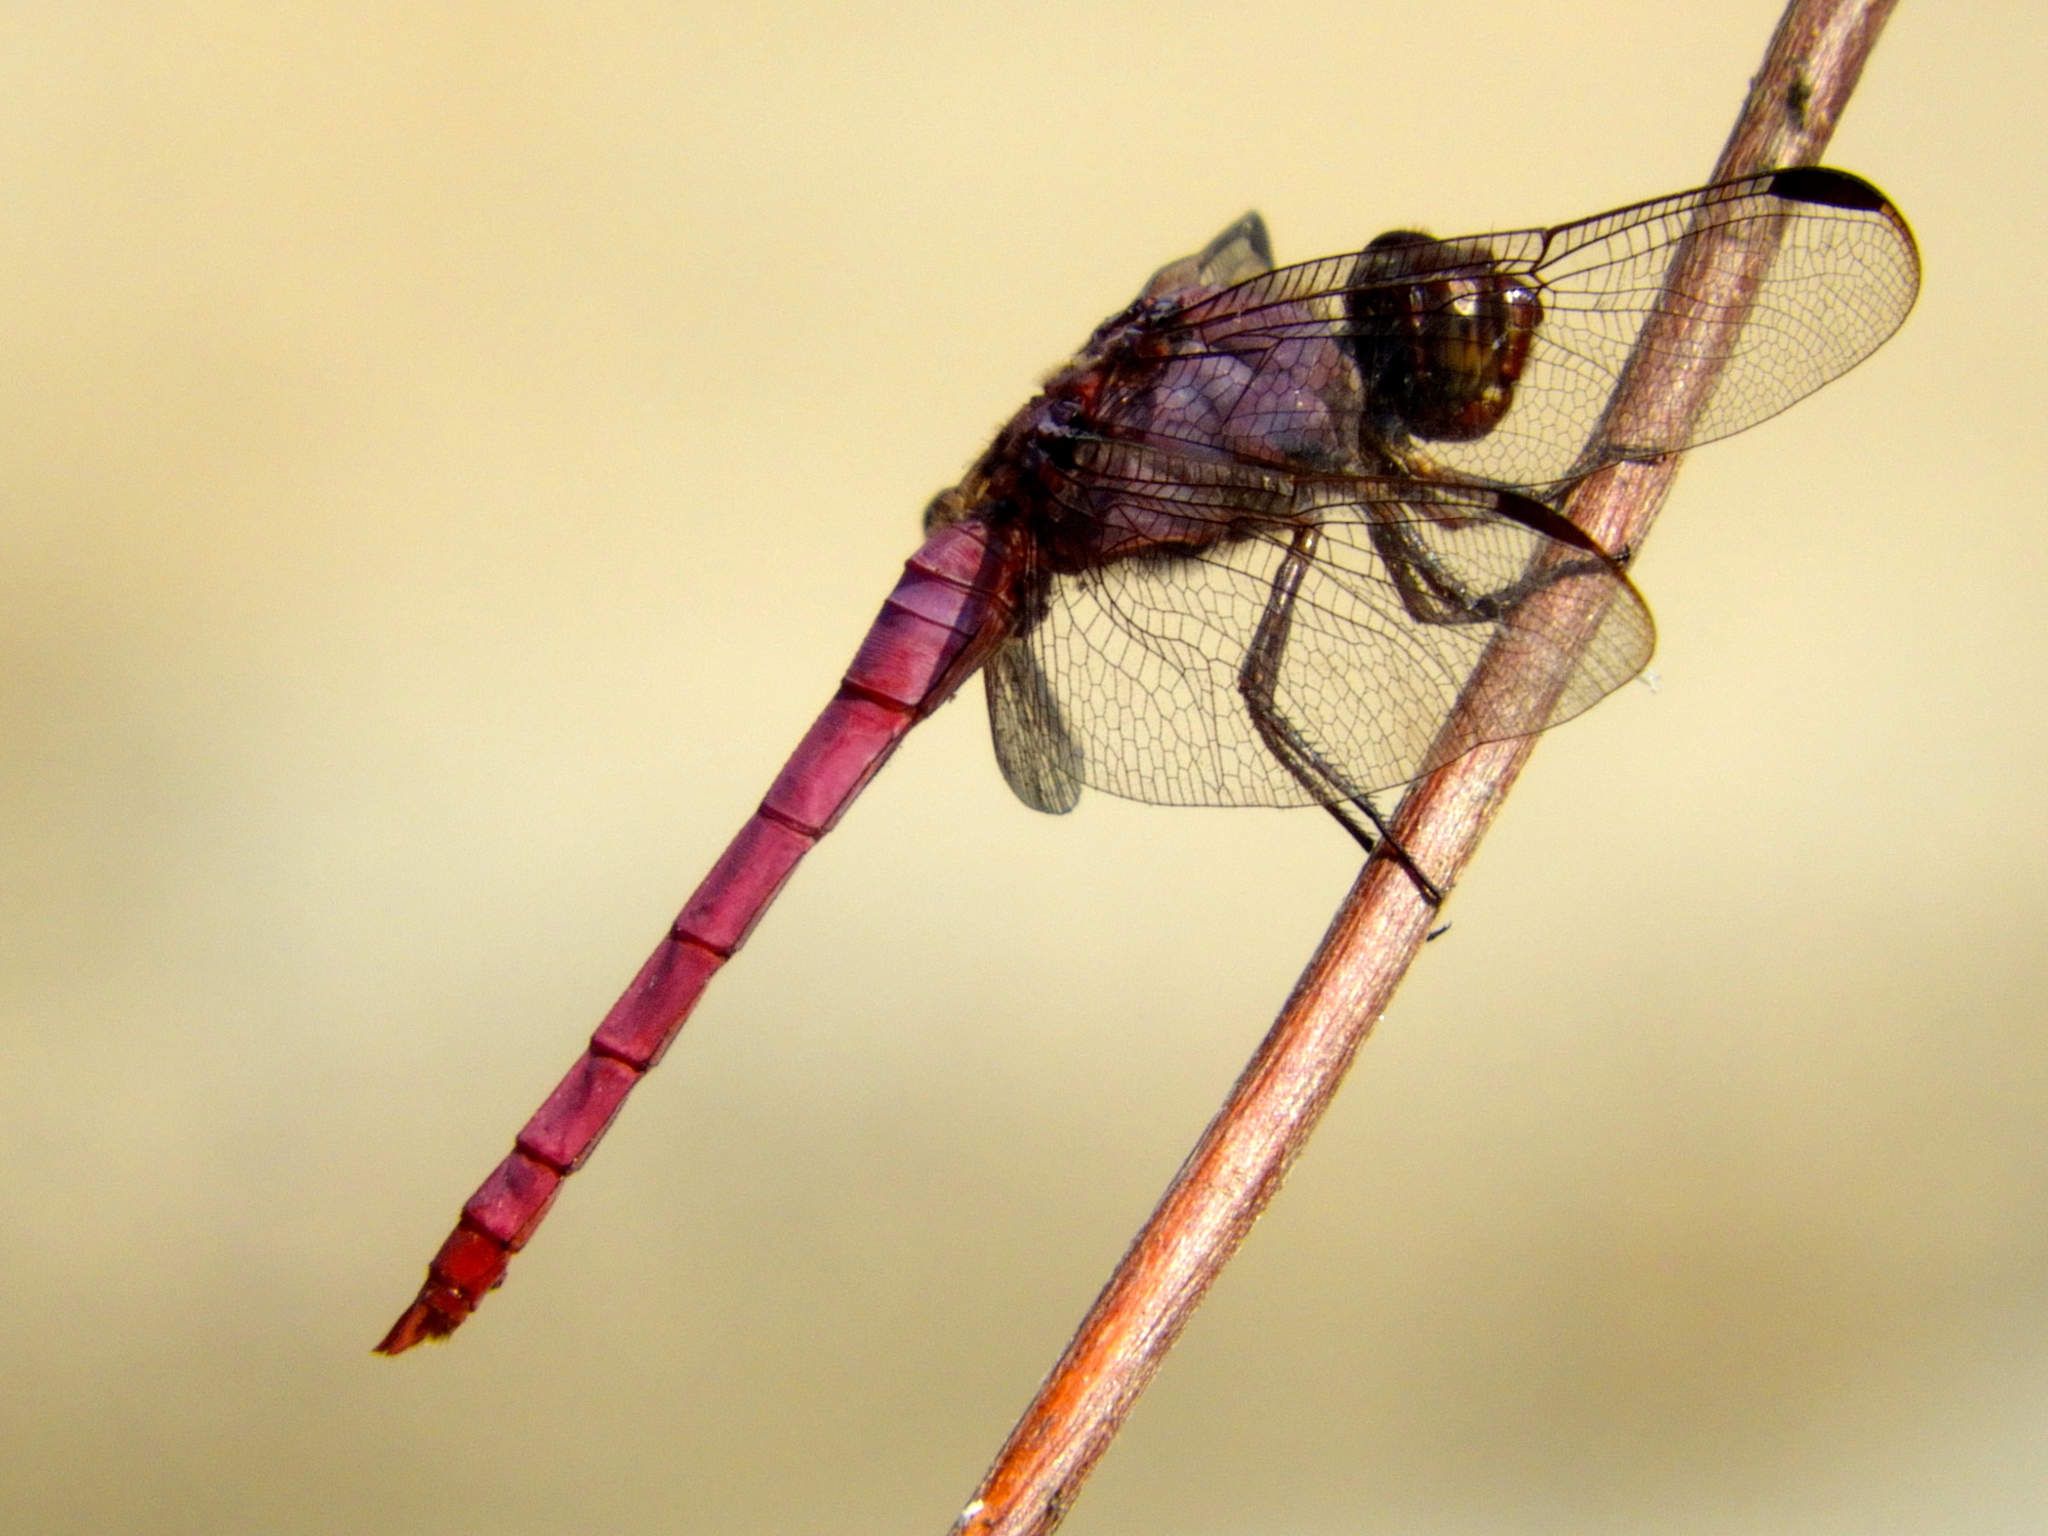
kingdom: Animalia
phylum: Arthropoda
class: Insecta
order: Odonata
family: Libellulidae
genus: Orthemis
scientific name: Orthemis ferruginea
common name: Roseate skimmer
